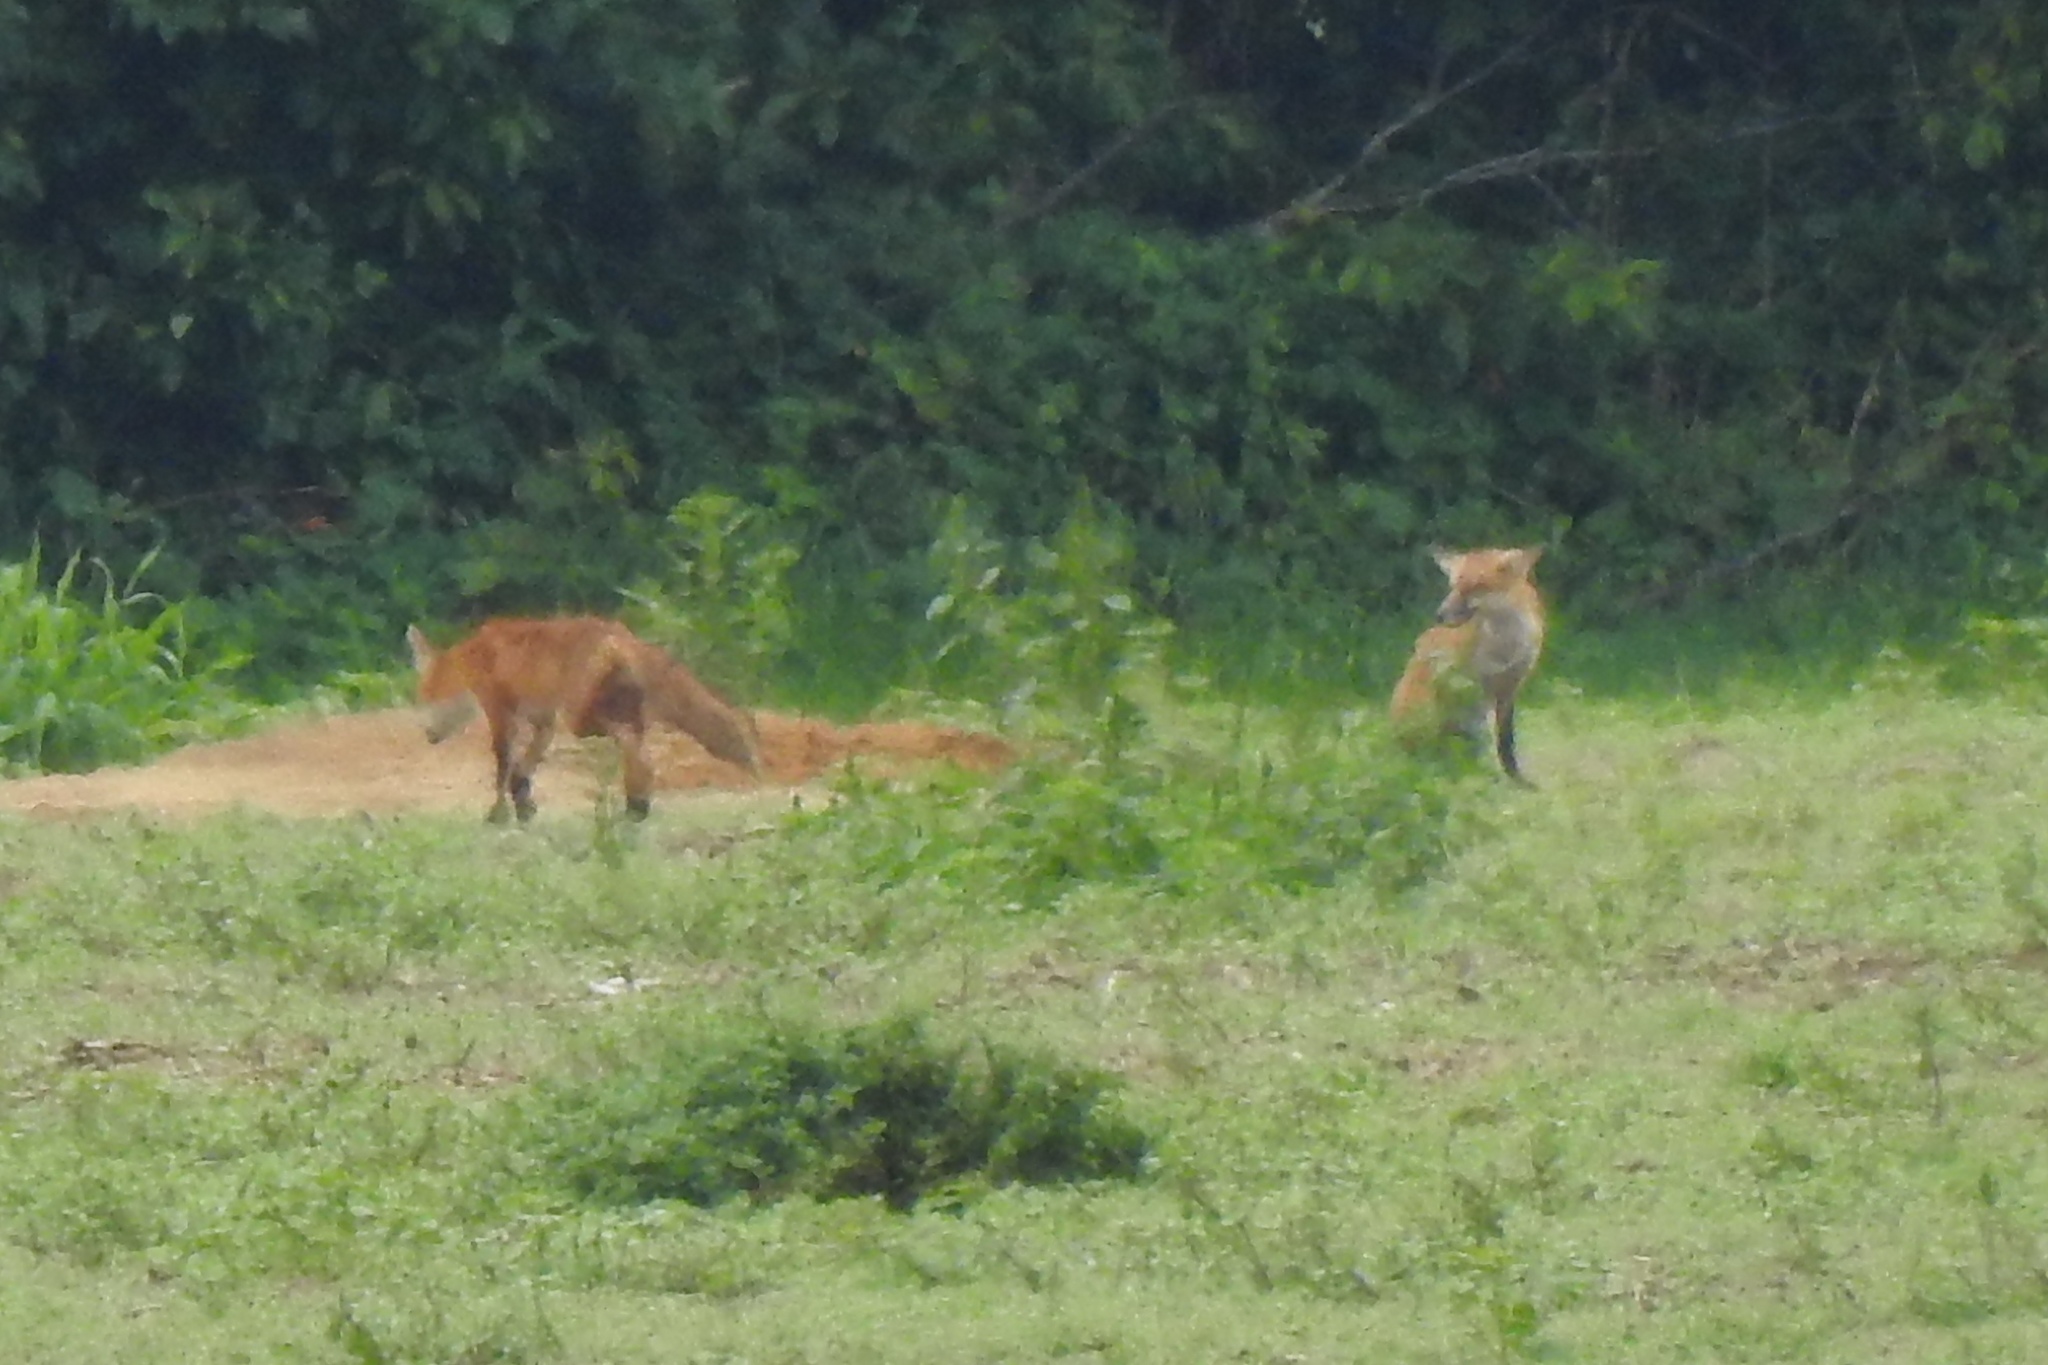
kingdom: Animalia
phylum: Chordata
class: Mammalia
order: Carnivora
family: Canidae
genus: Vulpes
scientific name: Vulpes vulpes
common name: Red fox
